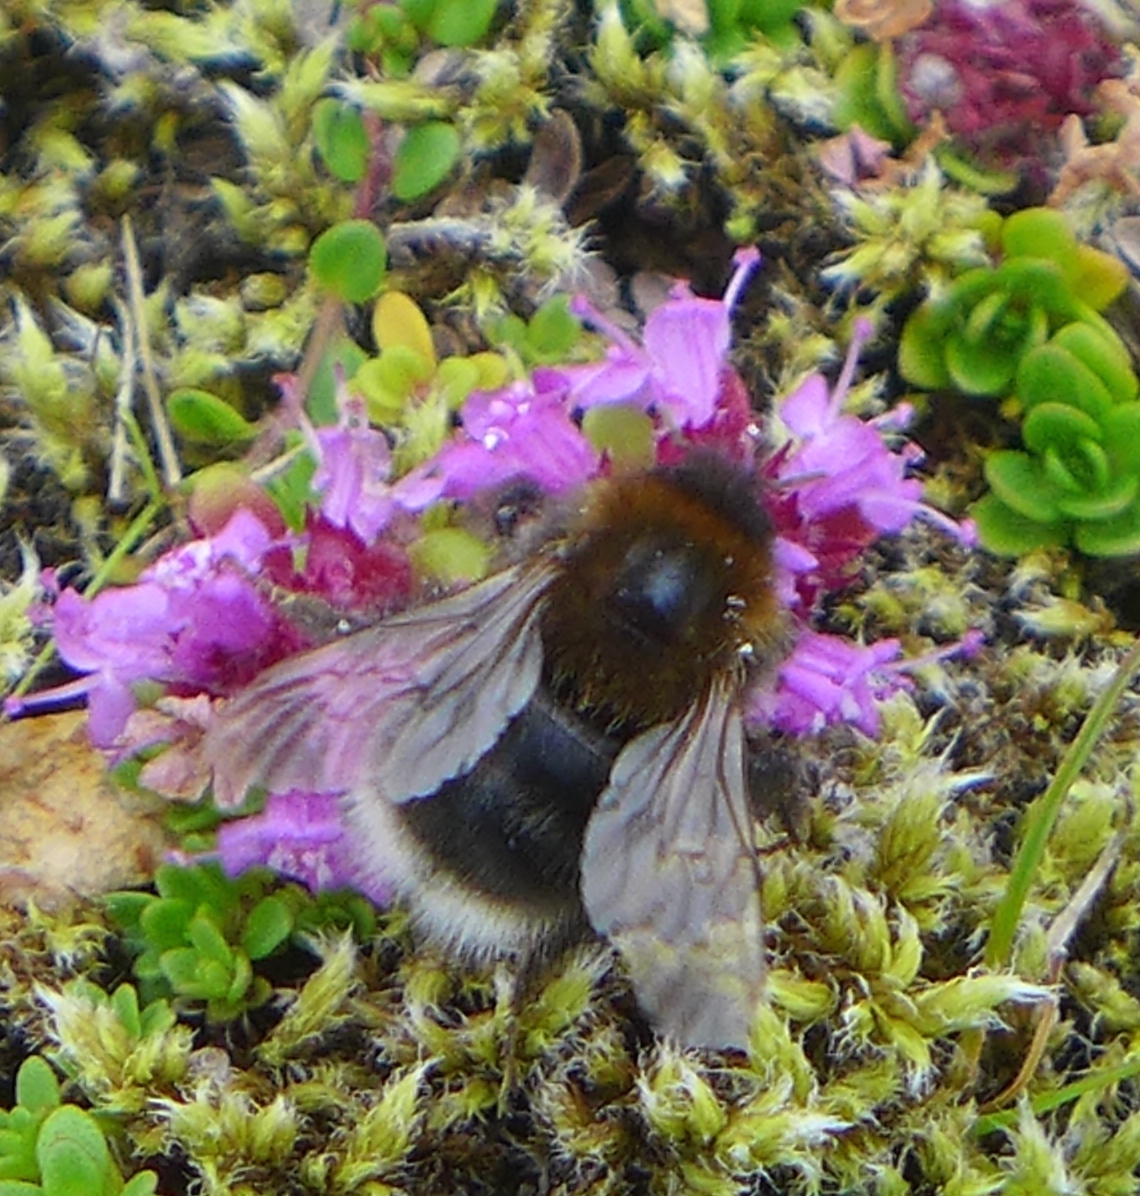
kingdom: Animalia
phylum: Arthropoda
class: Insecta
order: Hymenoptera
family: Apidae
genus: Bombus
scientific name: Bombus hypnorum
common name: New garden bumblebee
